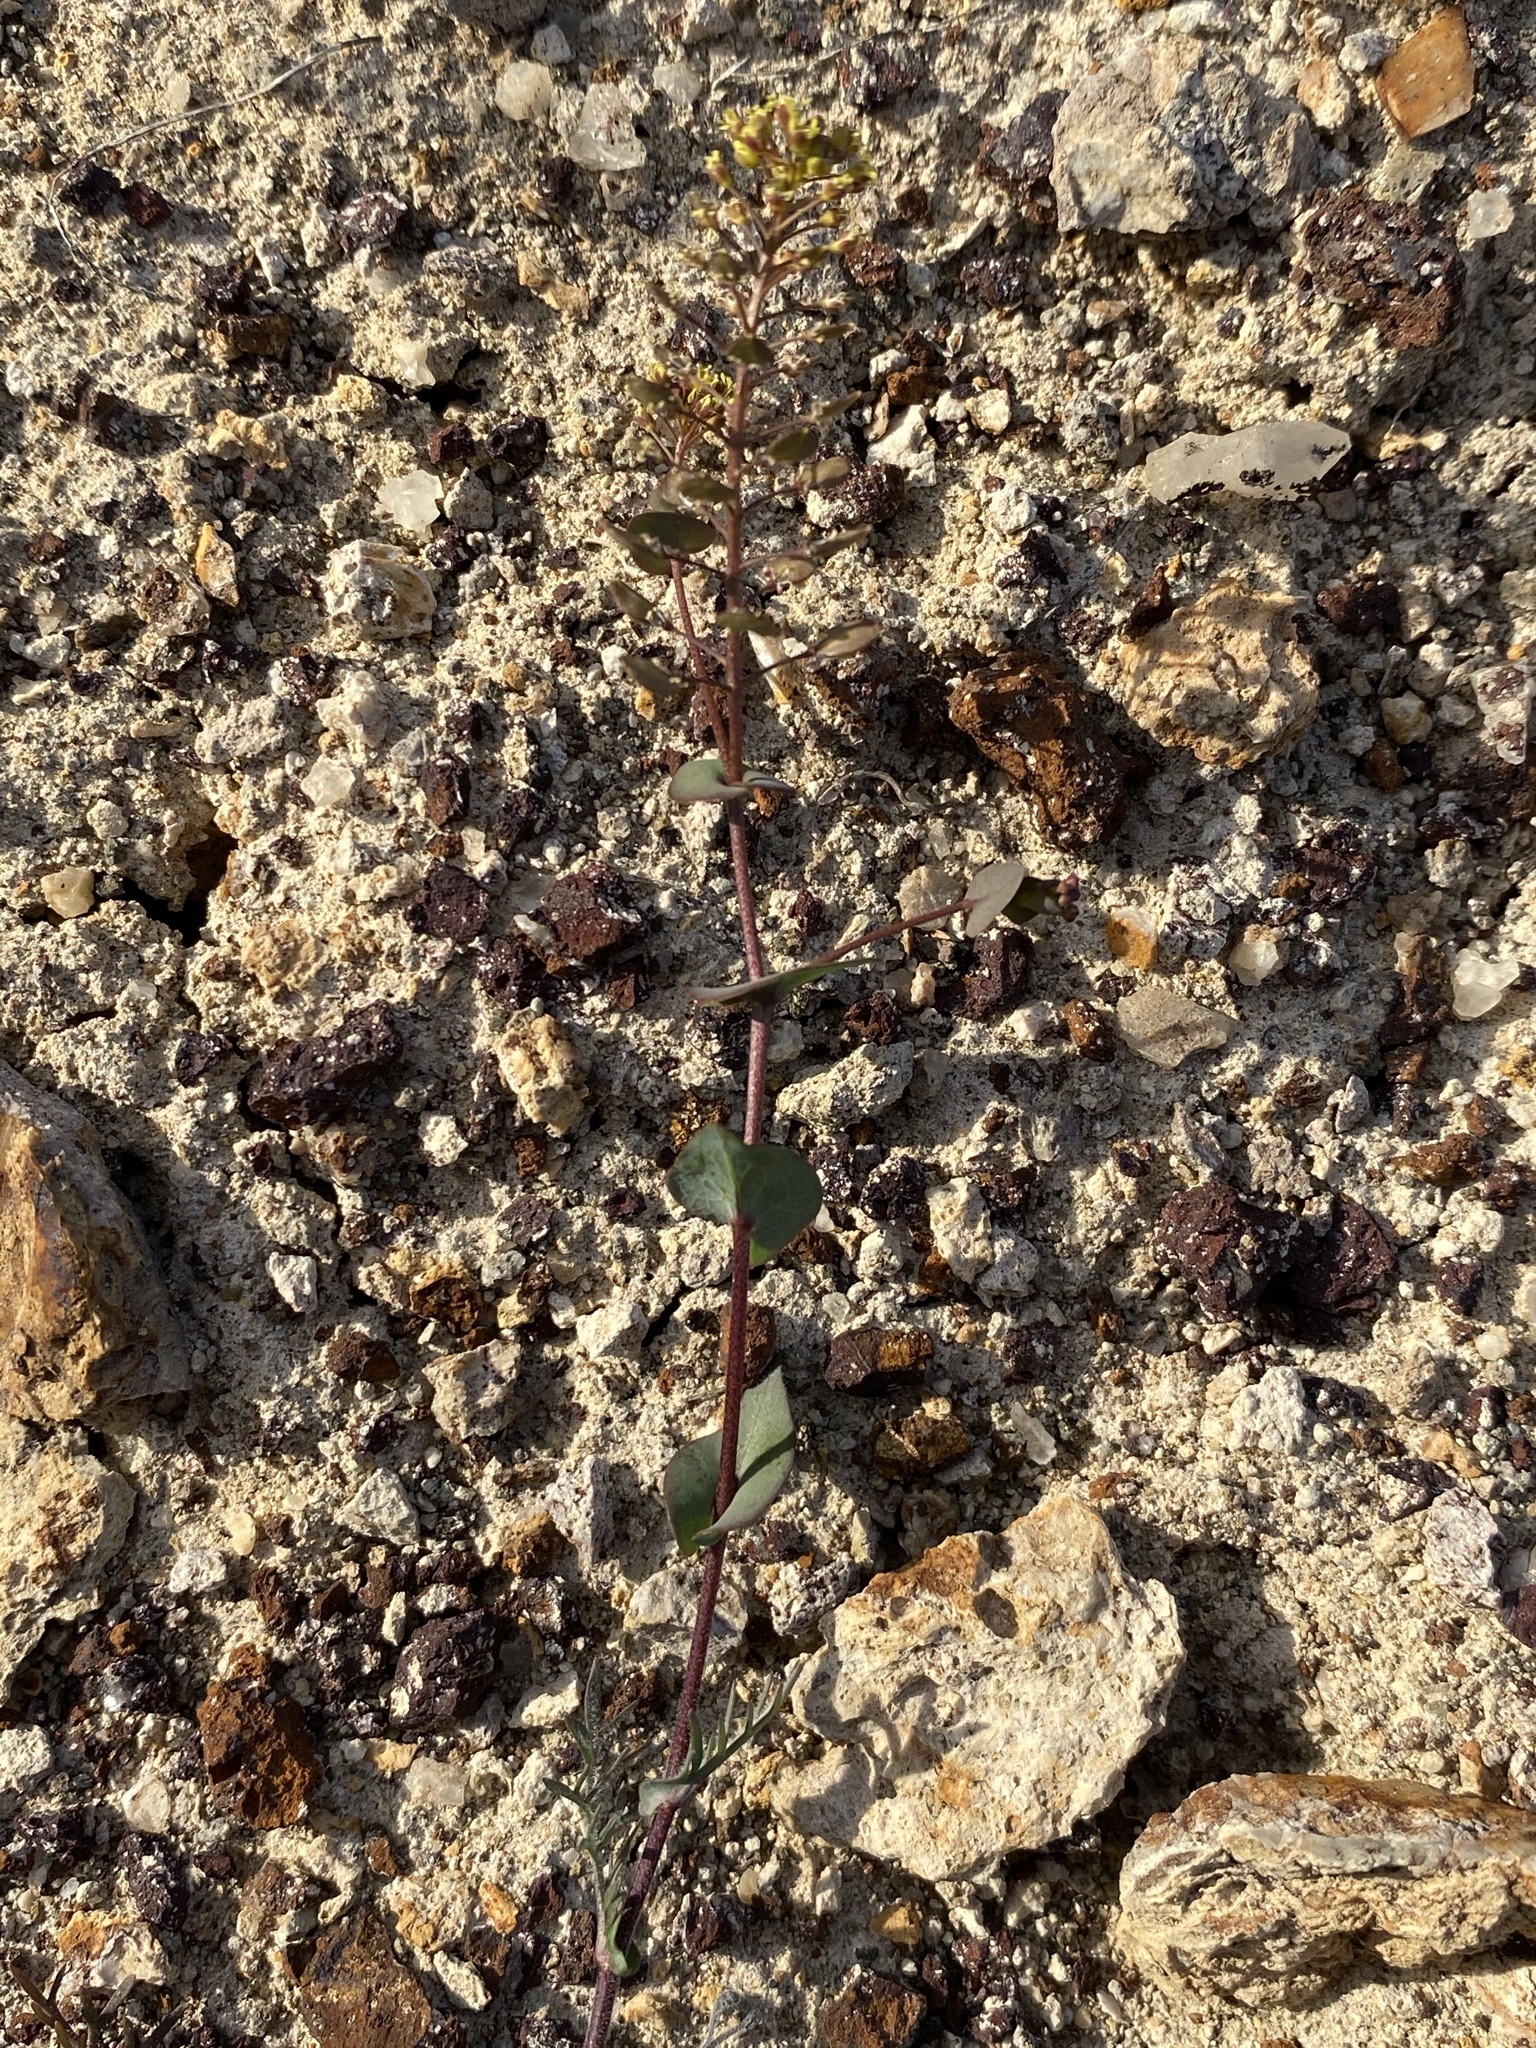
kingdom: Plantae
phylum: Tracheophyta
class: Magnoliopsida
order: Brassicales
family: Brassicaceae
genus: Lepidium
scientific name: Lepidium perfoliatum
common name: Perfoliate pepperwort
